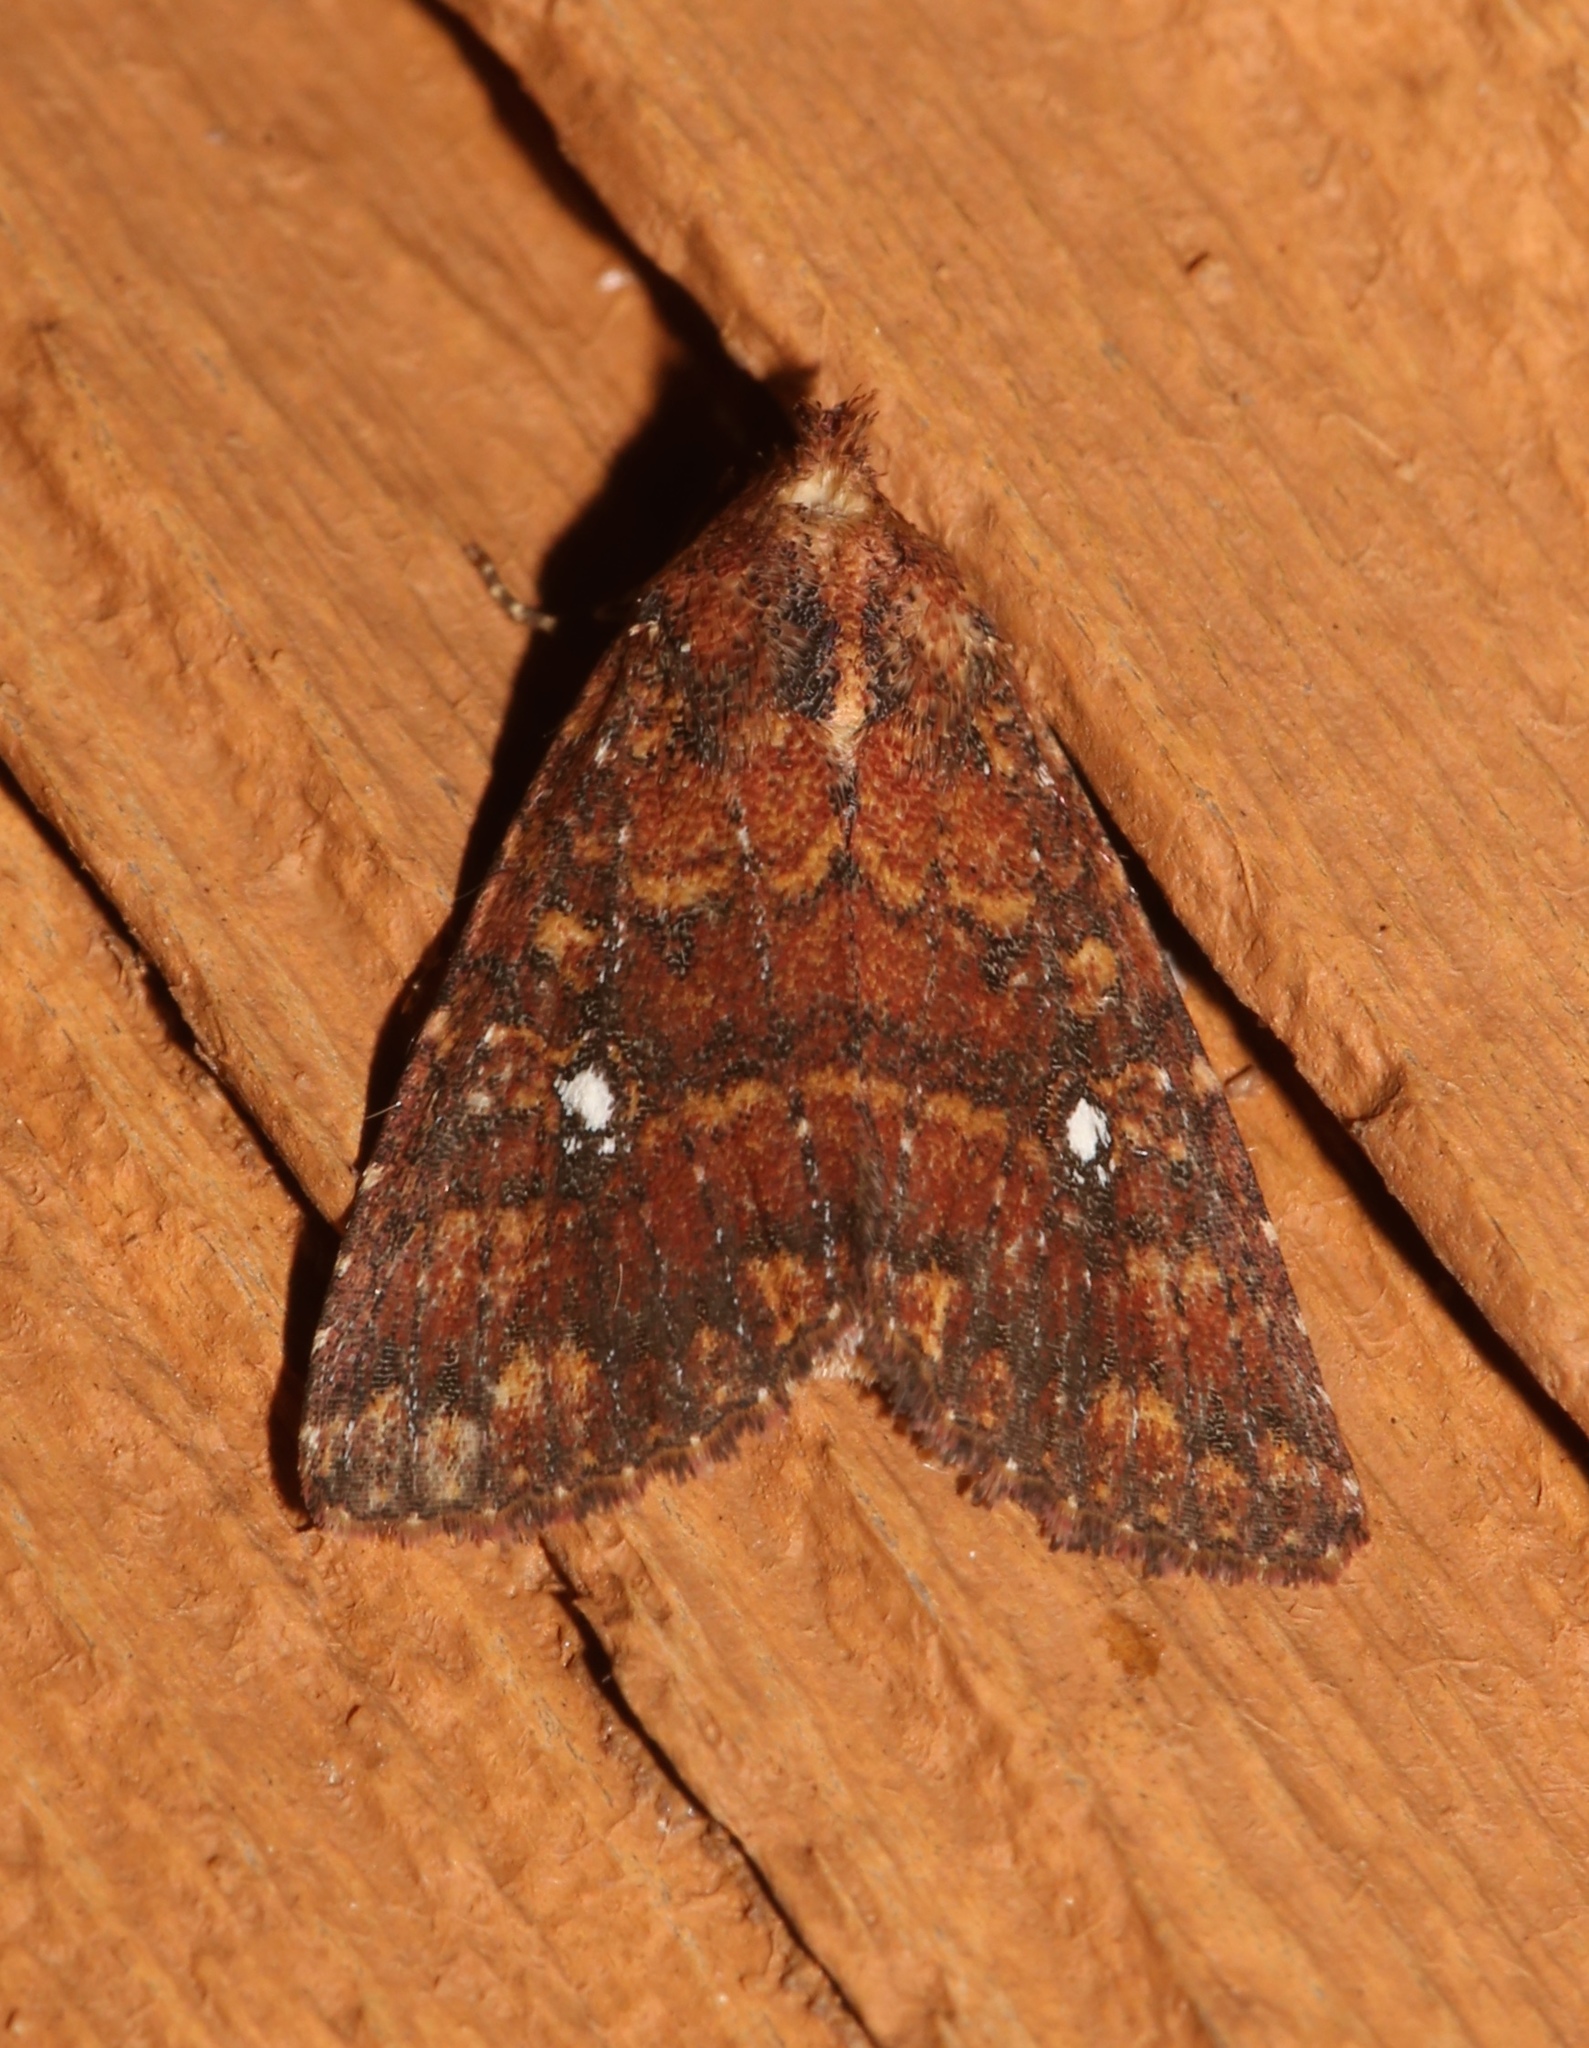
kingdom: Animalia
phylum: Arthropoda
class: Insecta
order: Lepidoptera
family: Noctuidae
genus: Condica
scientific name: Condica mobilis
